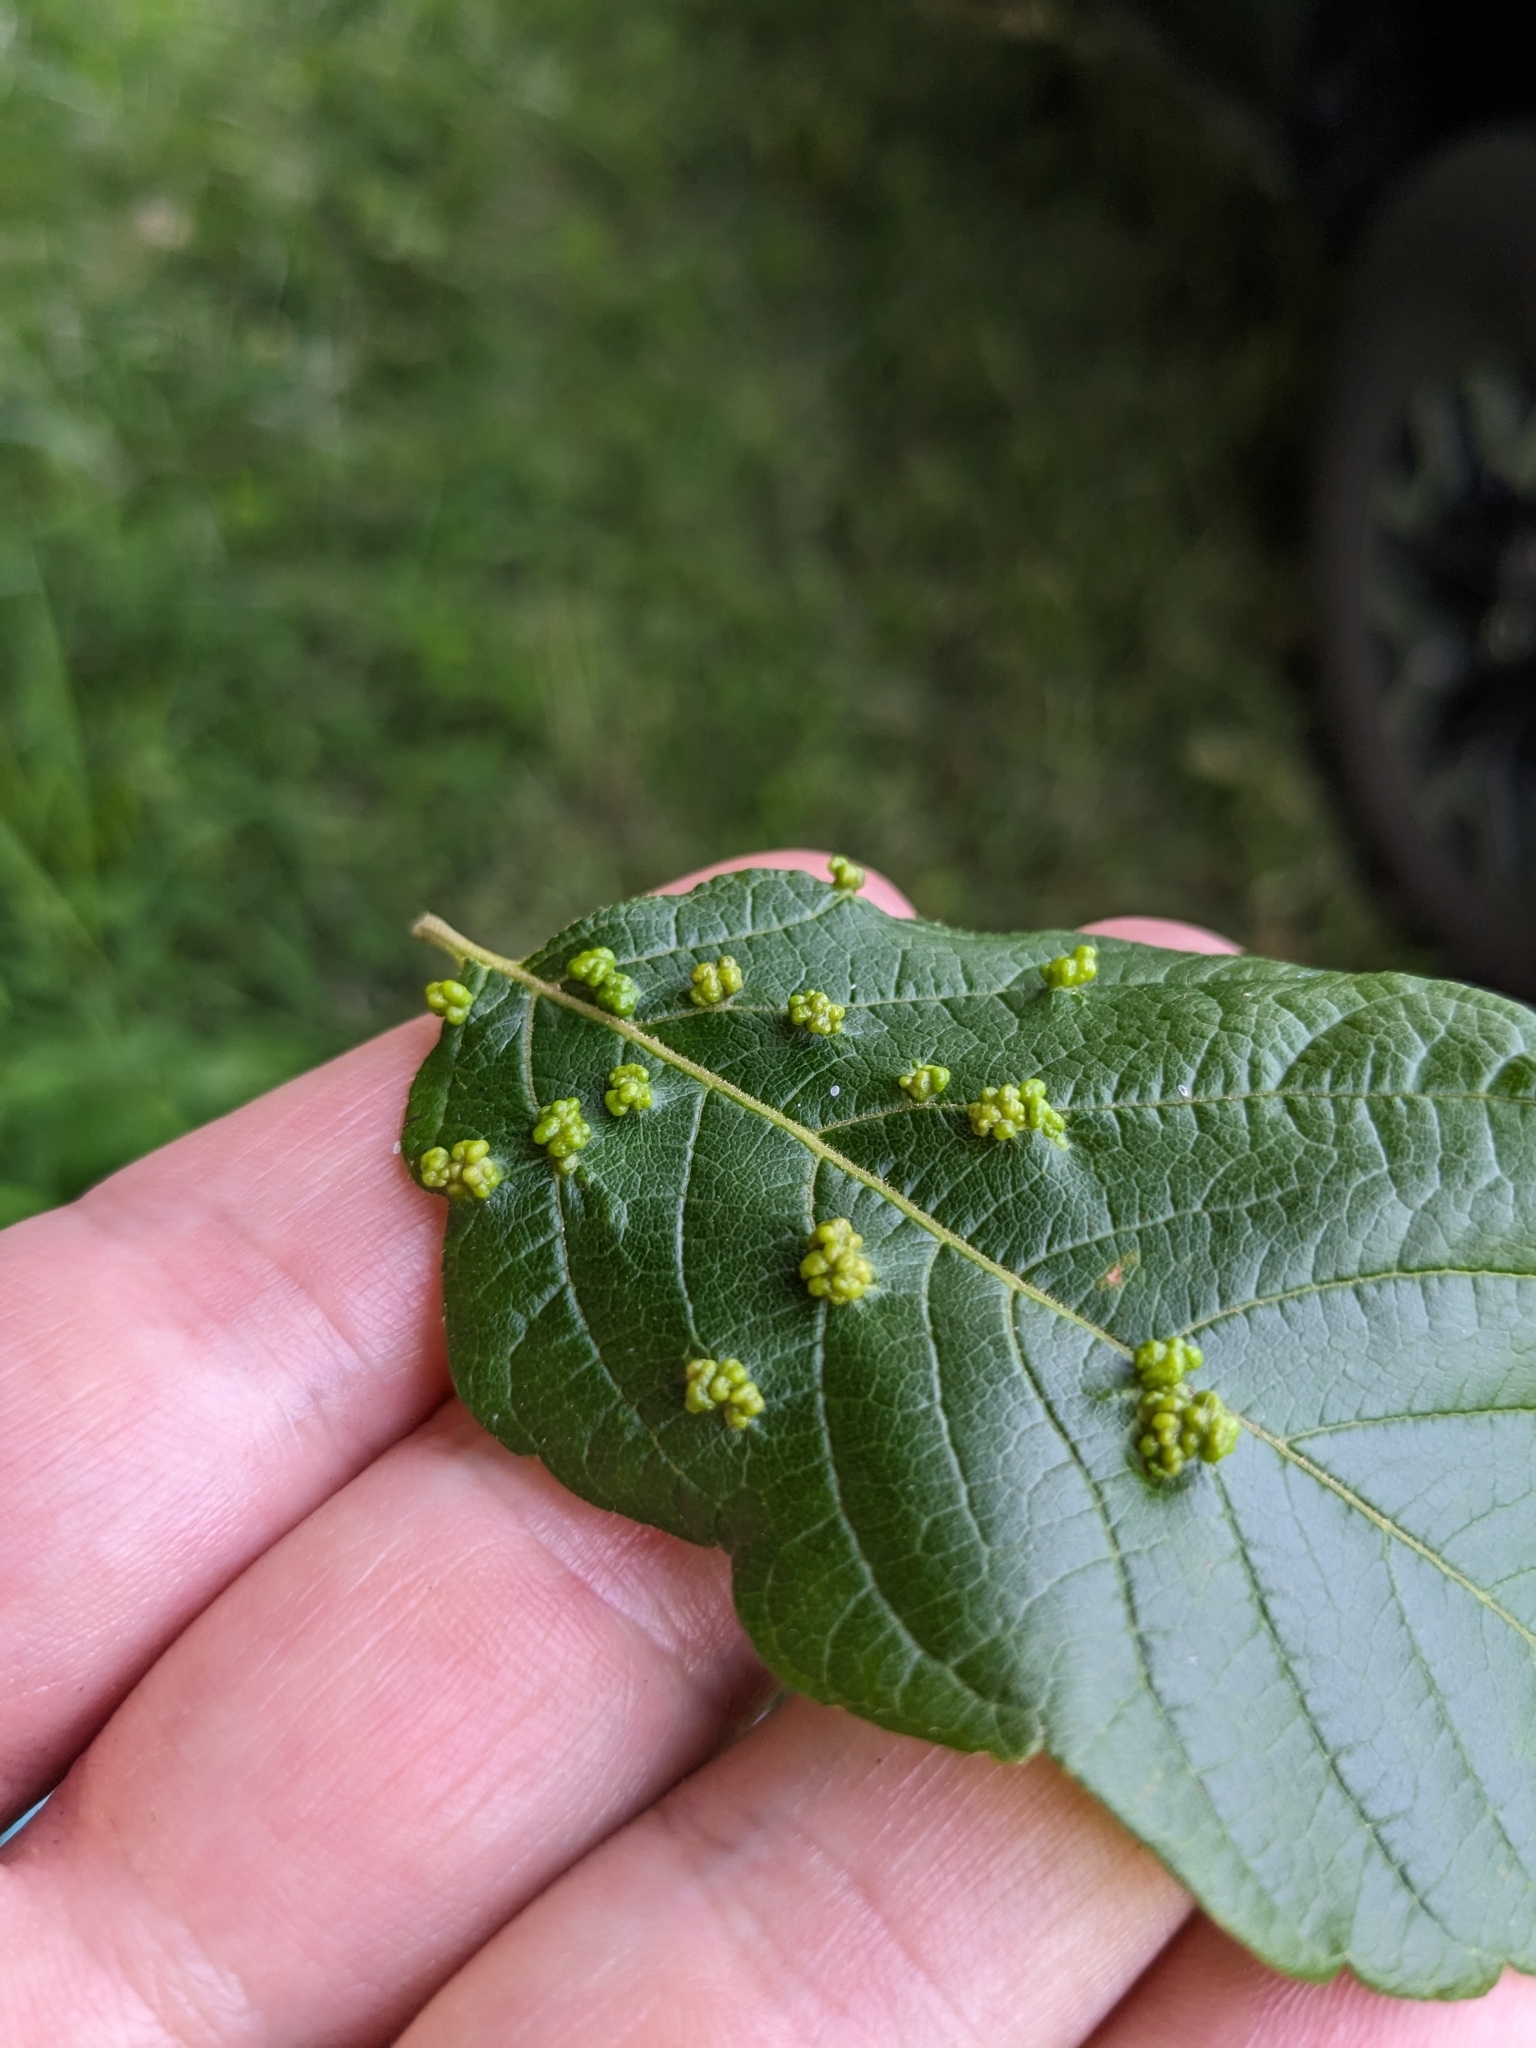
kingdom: Animalia
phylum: Arthropoda
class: Arachnida
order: Trombidiformes
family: Eriophyidae
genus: Aceria
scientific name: Aceria
